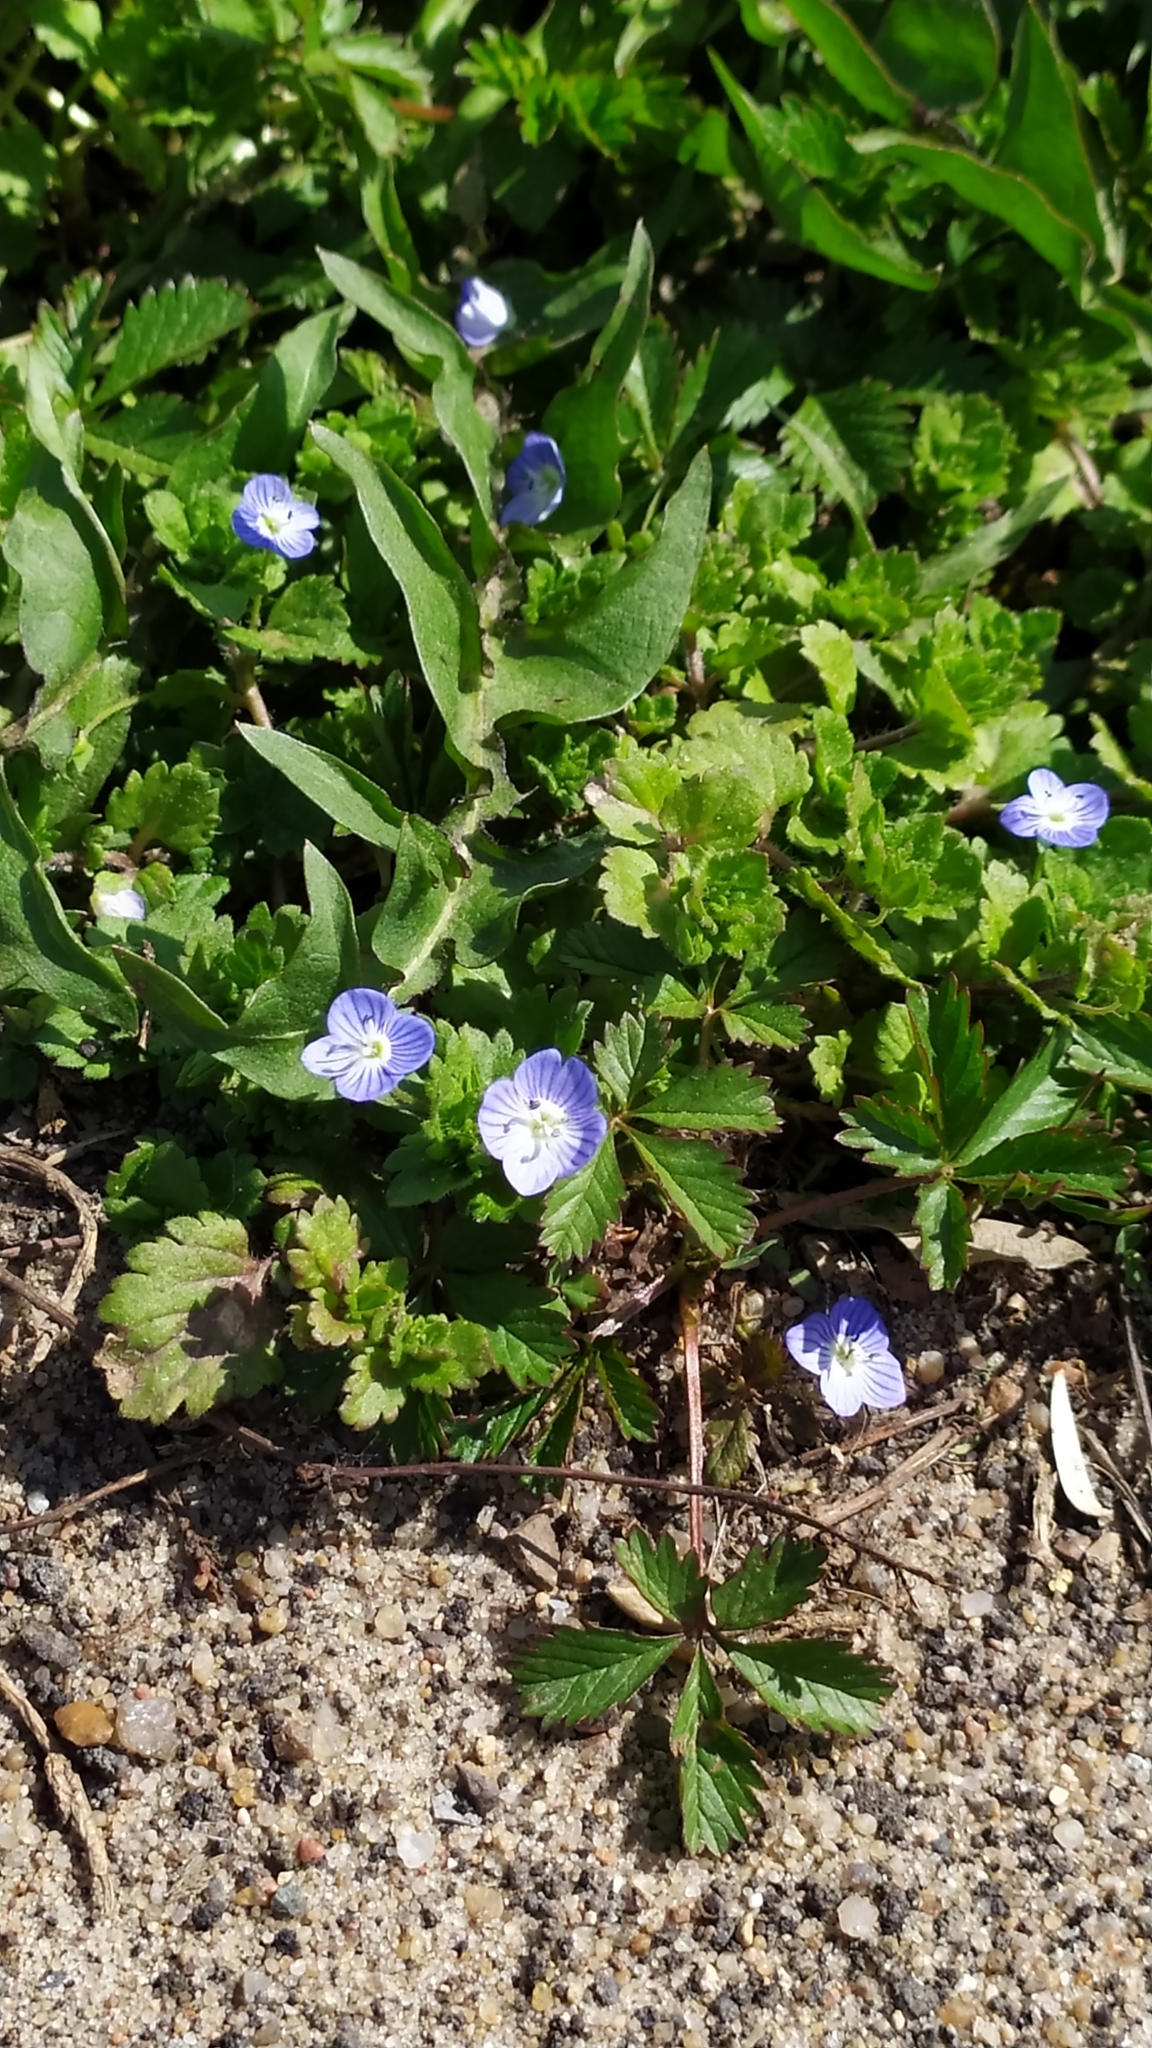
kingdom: Plantae
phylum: Tracheophyta
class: Magnoliopsida
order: Lamiales
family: Plantaginaceae
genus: Veronica
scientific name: Veronica persica
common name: Common field-speedwell
